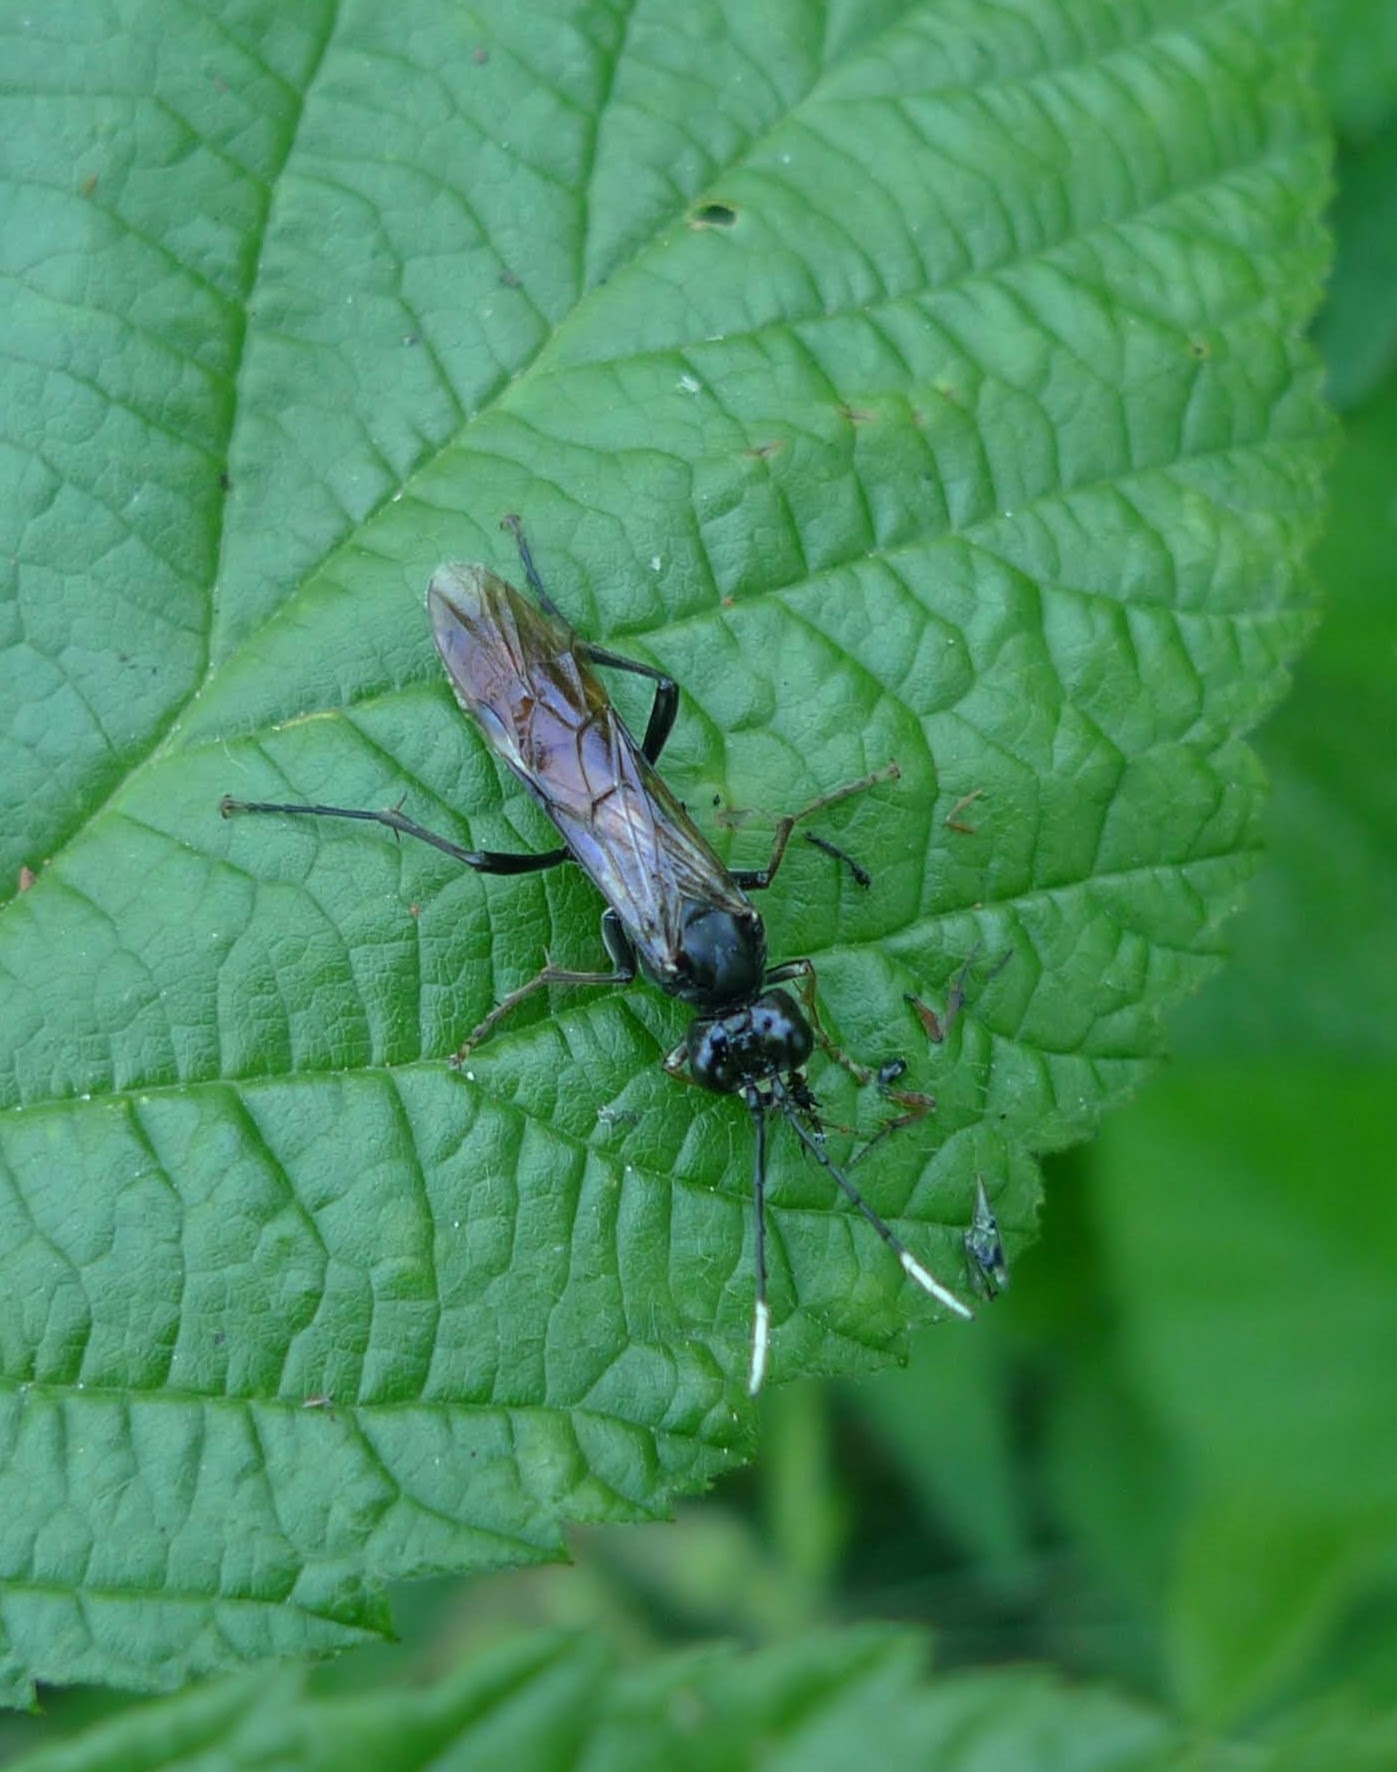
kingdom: Animalia
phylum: Arthropoda
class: Insecta
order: Hymenoptera
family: Tenthredinidae
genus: Tenthredo
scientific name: Tenthredo livida
